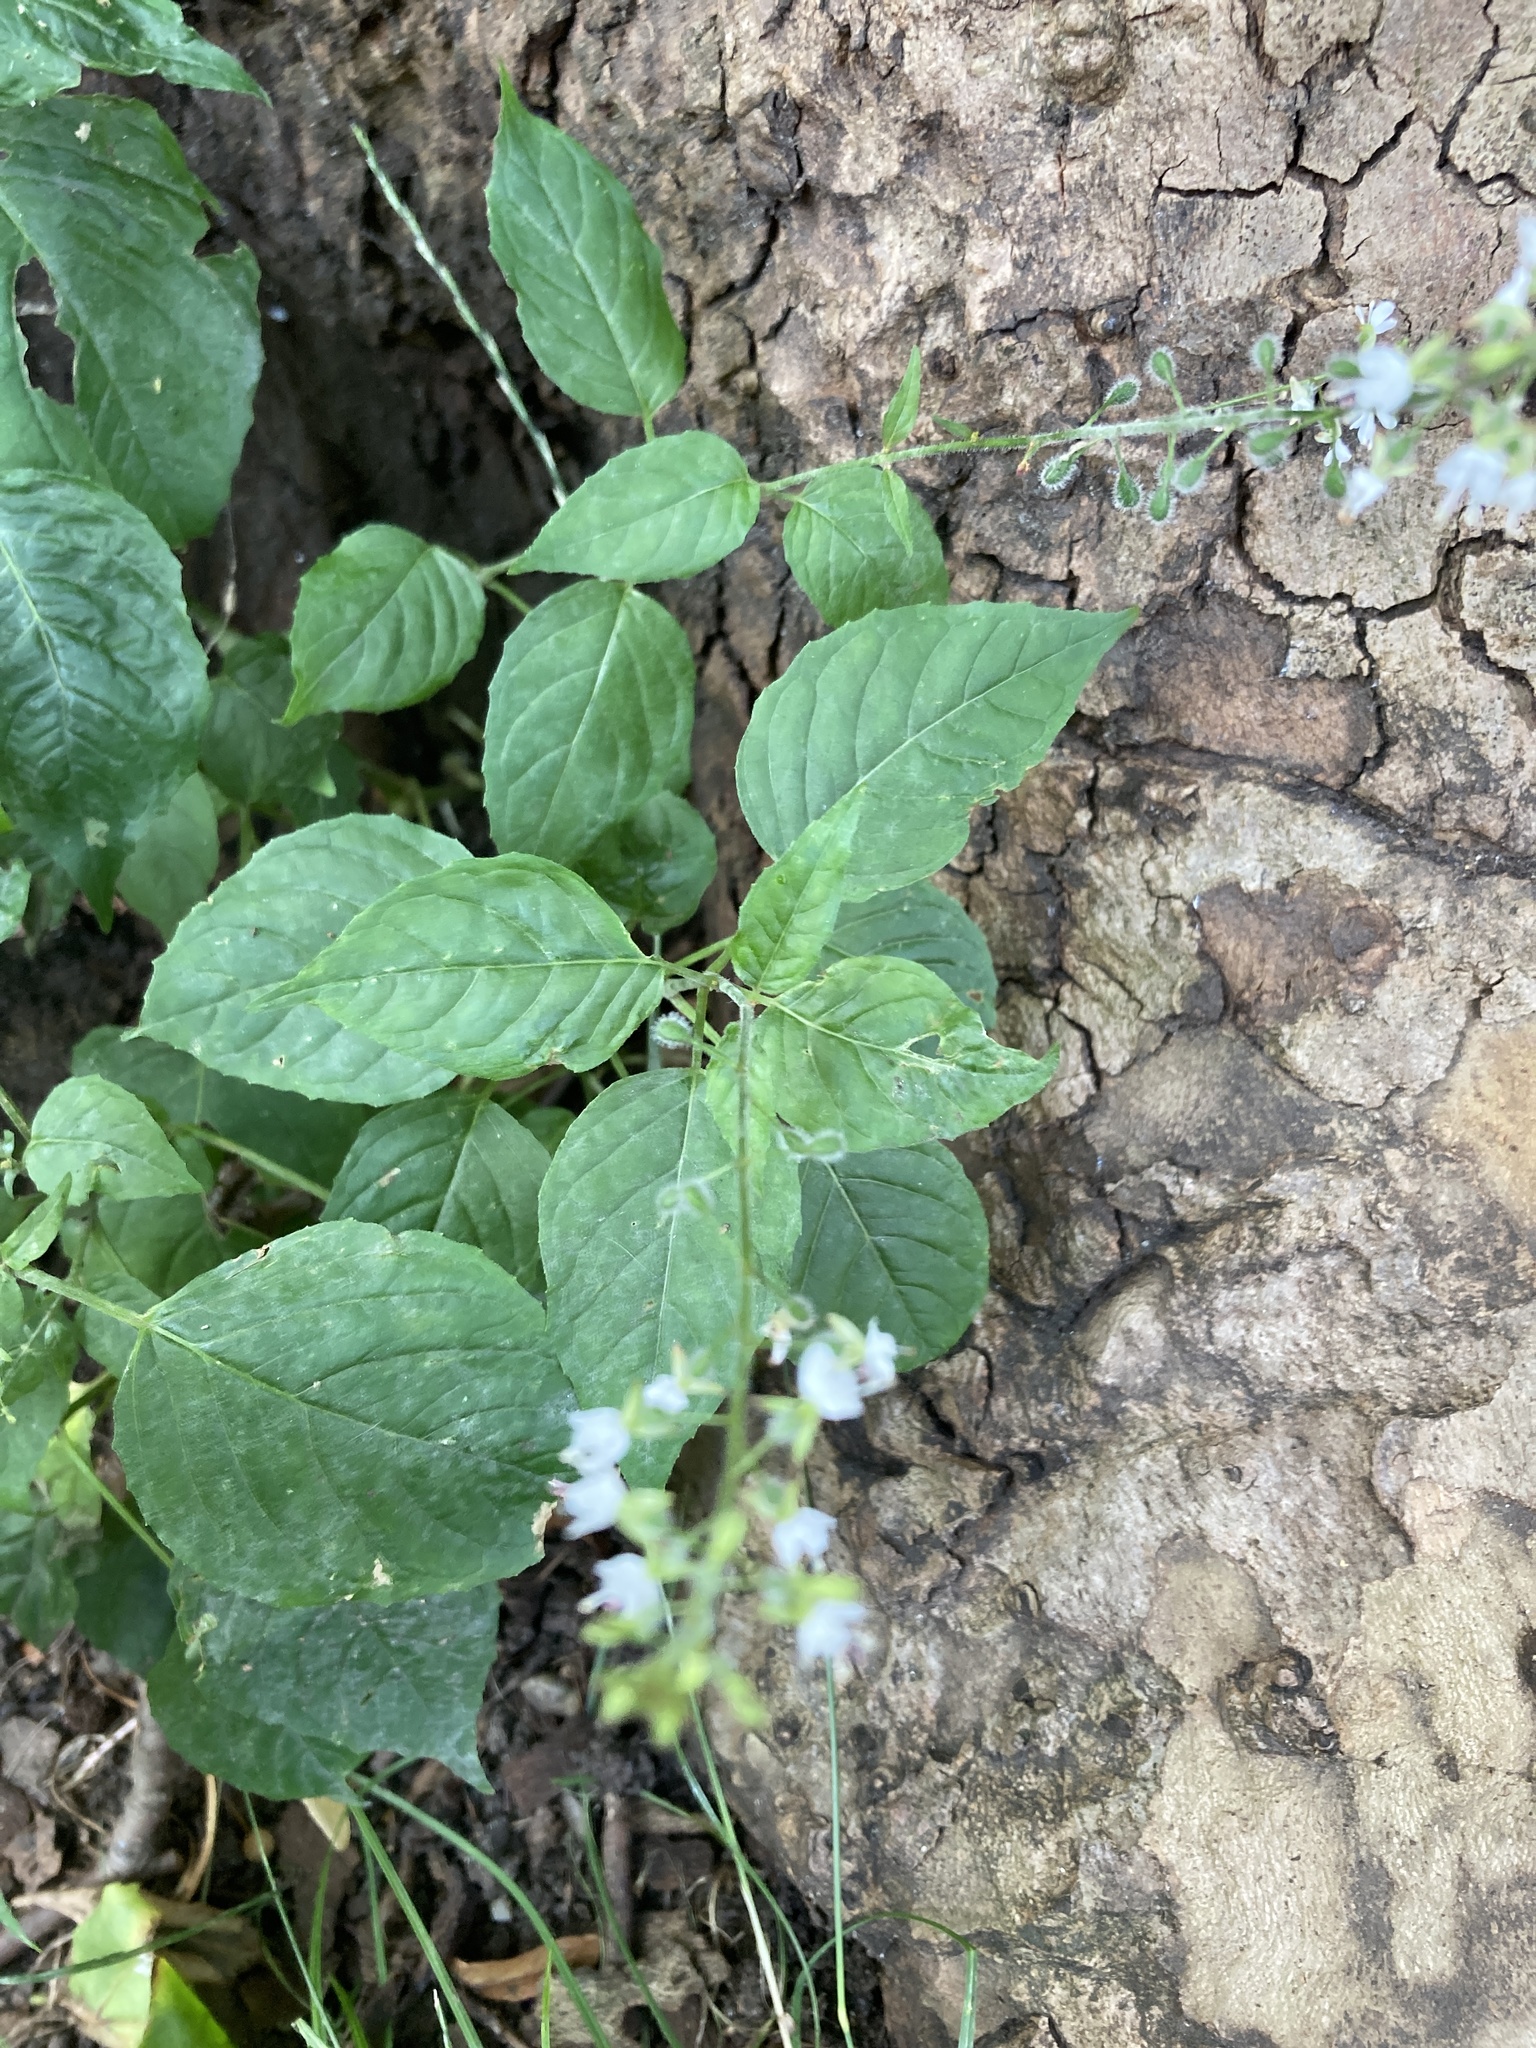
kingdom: Plantae
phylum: Tracheophyta
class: Magnoliopsida
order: Myrtales
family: Onagraceae
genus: Circaea
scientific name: Circaea lutetiana
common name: Enchanter's-nightshade
